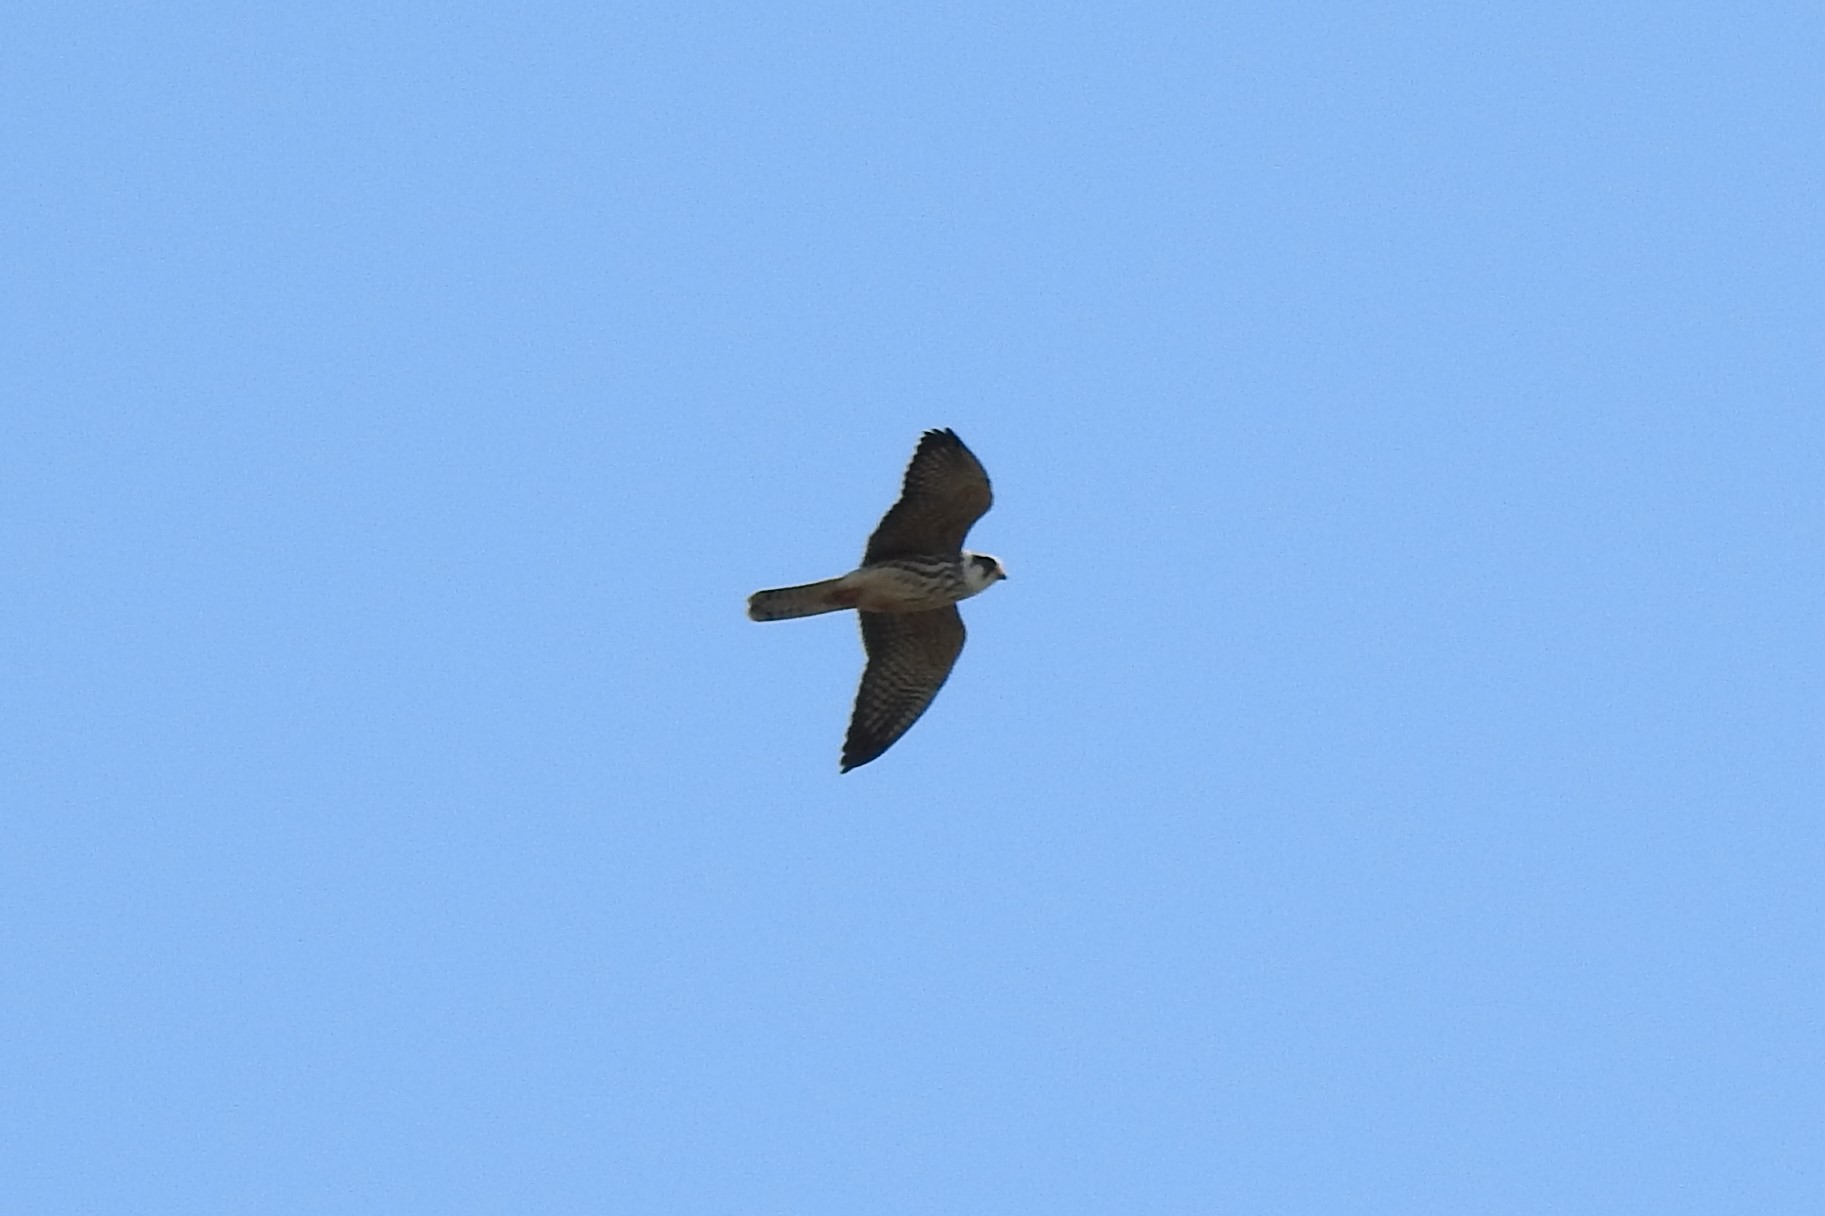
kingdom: Animalia
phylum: Chordata
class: Aves
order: Falconiformes
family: Falconidae
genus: Falco
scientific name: Falco vespertinus
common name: Red-footed falcon
